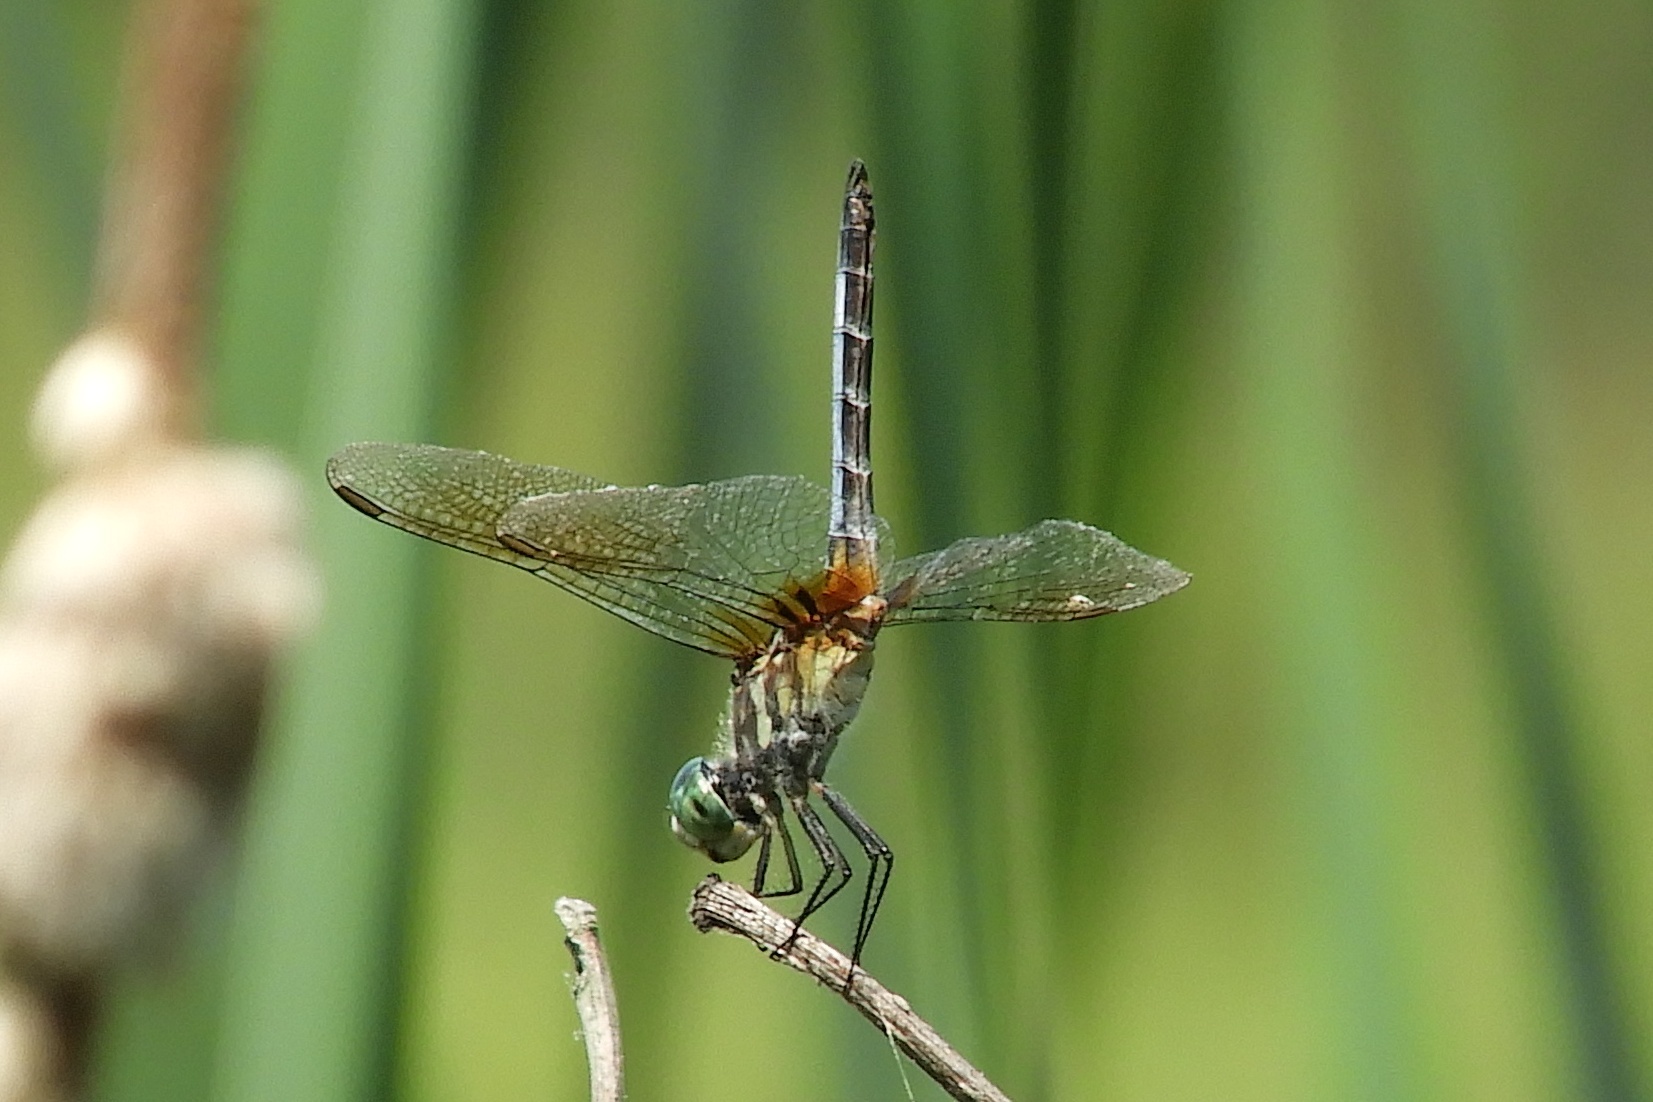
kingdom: Animalia
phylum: Arthropoda
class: Insecta
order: Odonata
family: Libellulidae
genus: Pachydiplax
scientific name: Pachydiplax longipennis
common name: Blue dasher
